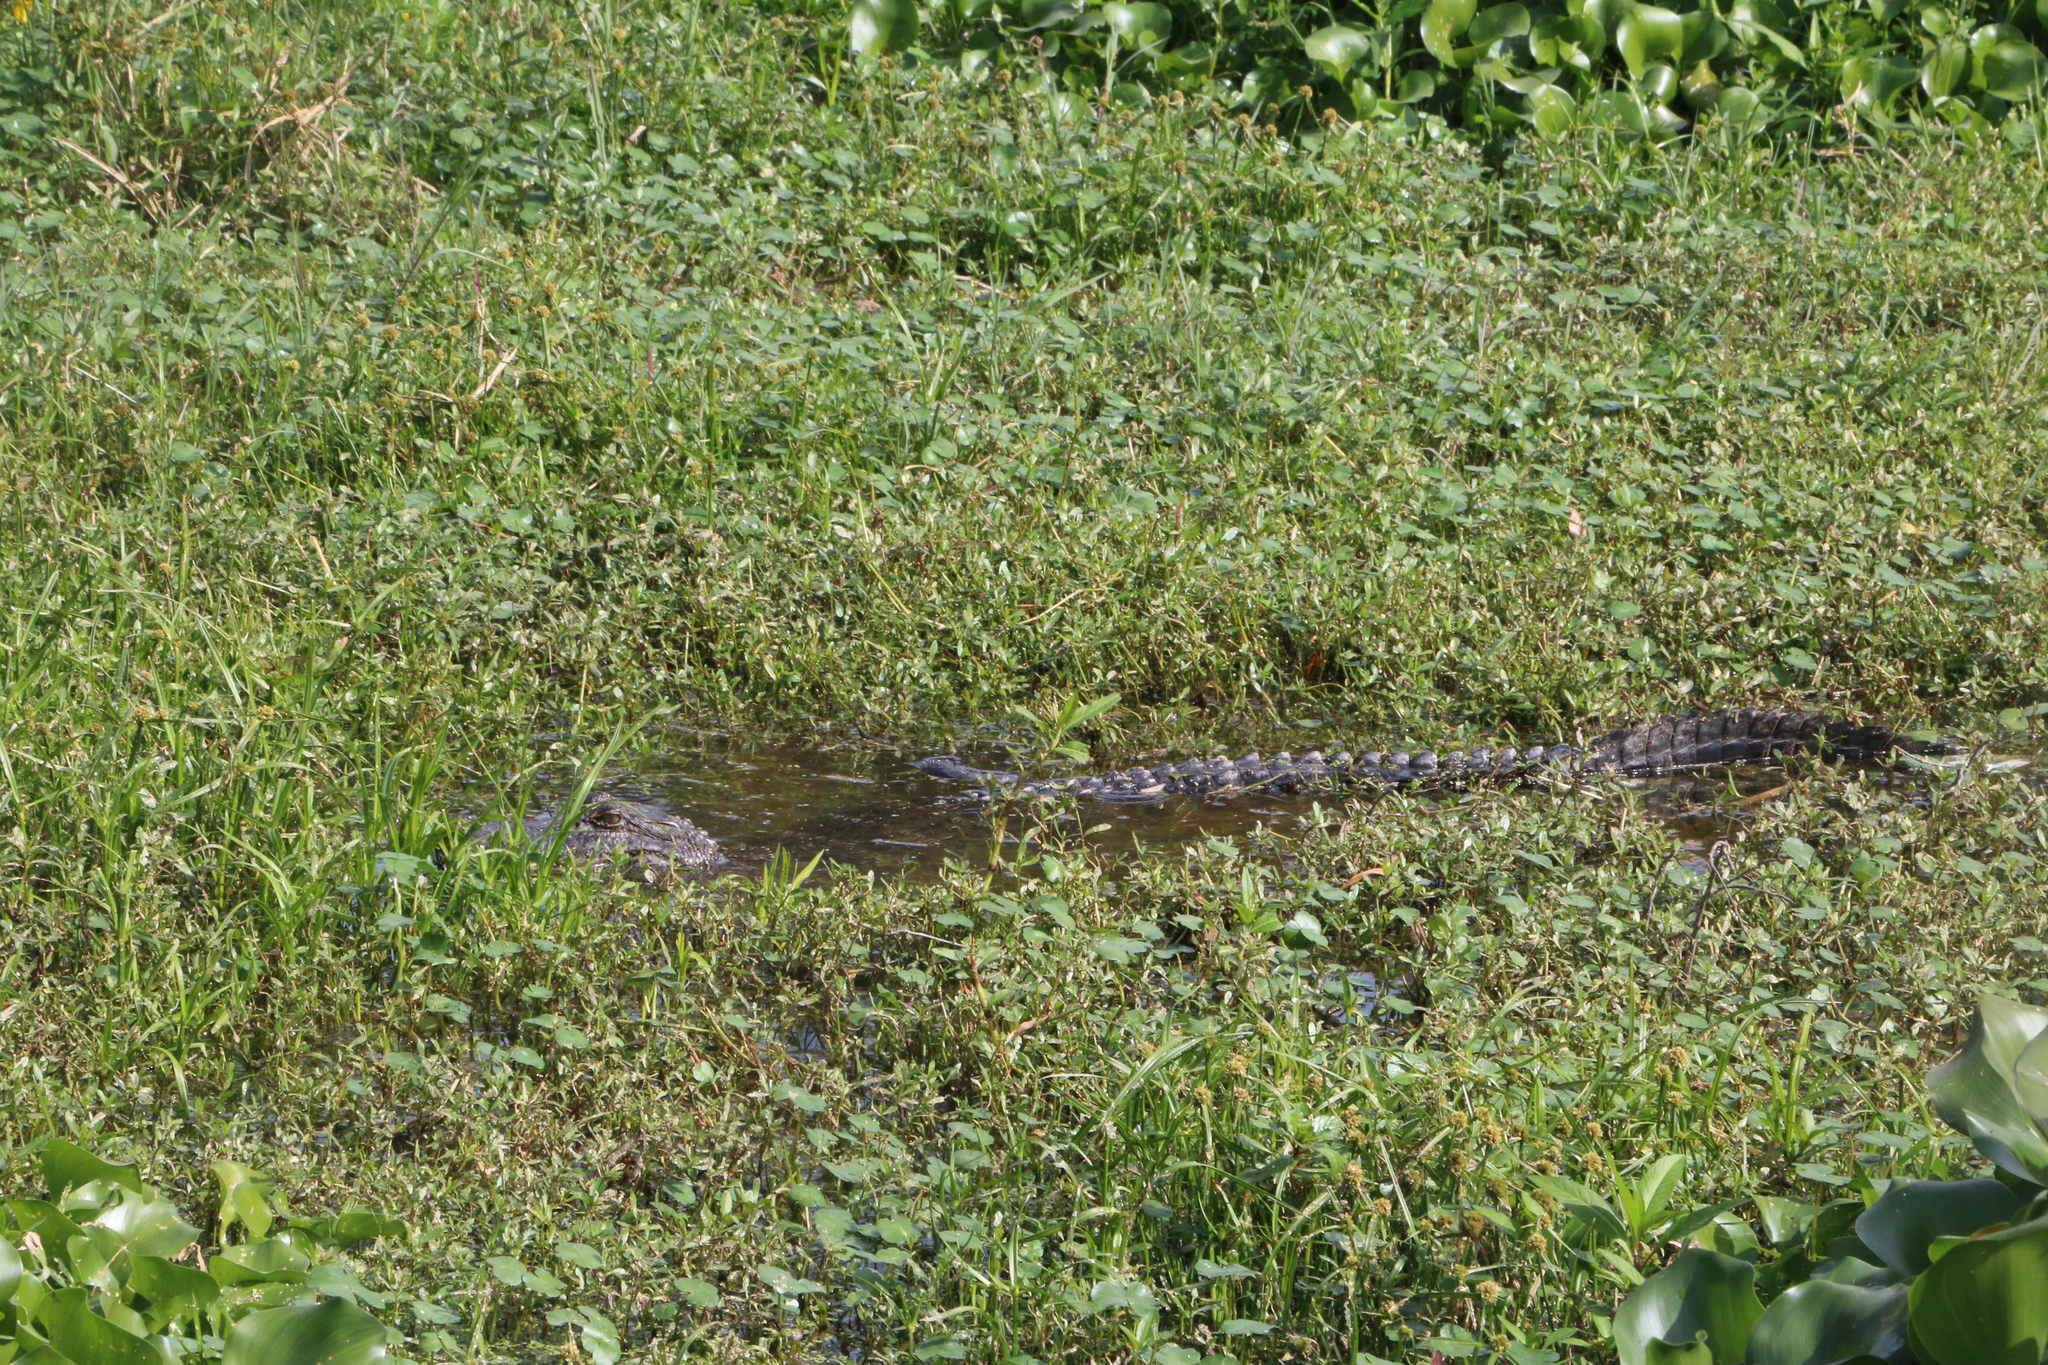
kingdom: Animalia
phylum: Chordata
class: Crocodylia
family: Alligatoridae
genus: Alligator
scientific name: Alligator mississippiensis
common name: American alligator
